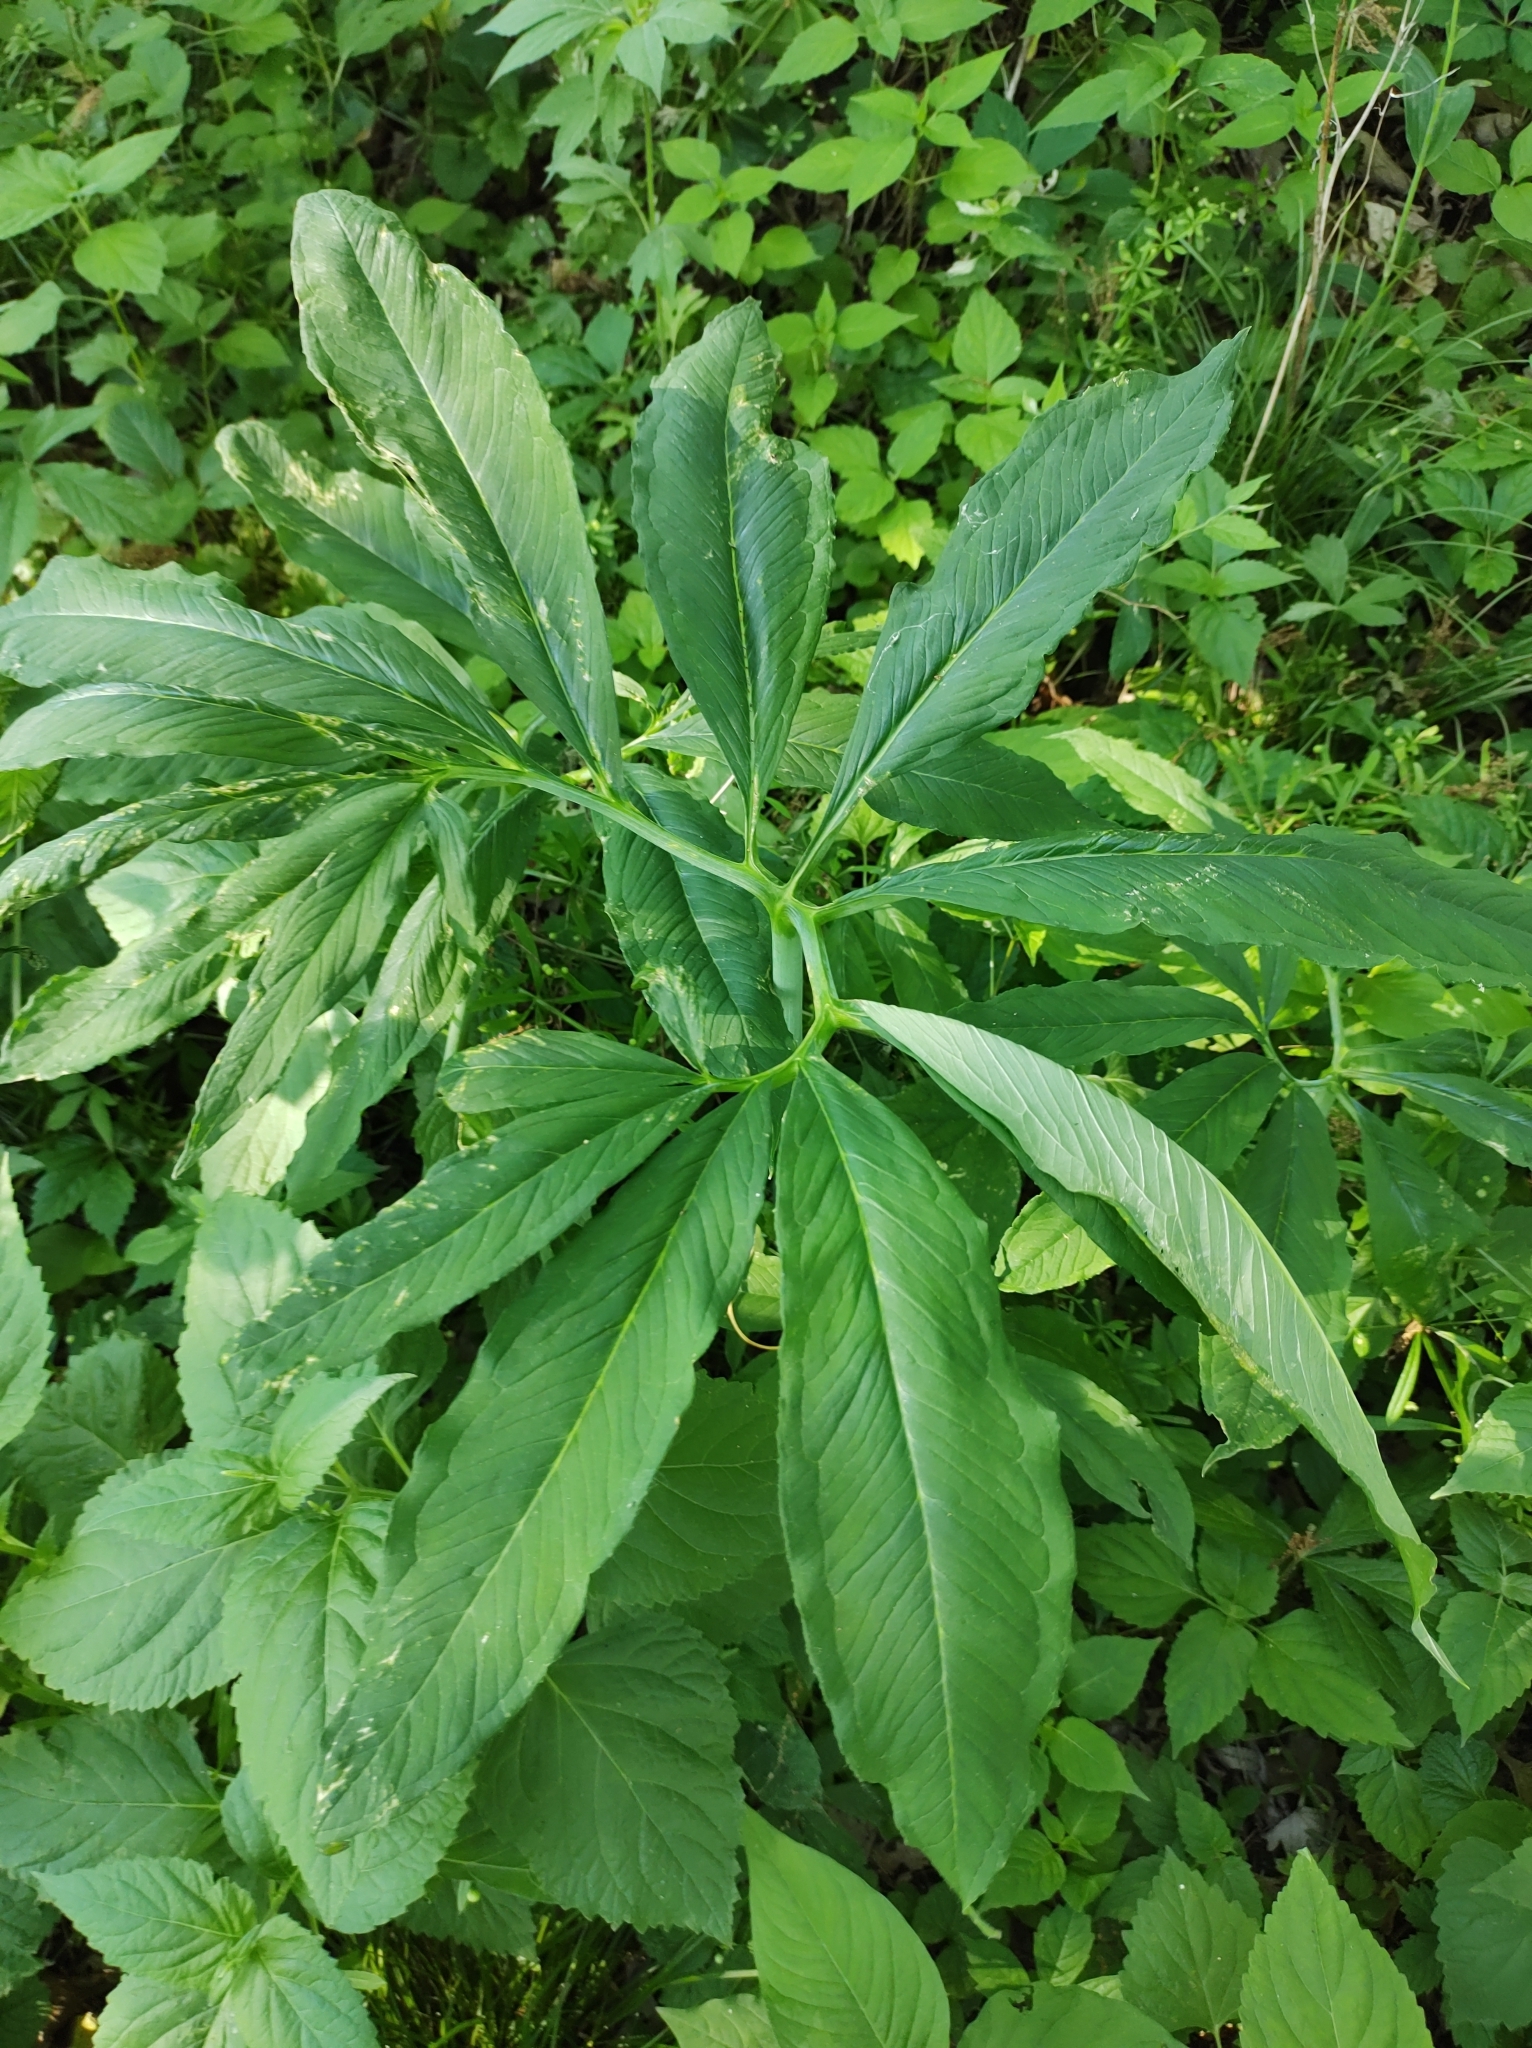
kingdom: Plantae
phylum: Tracheophyta
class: Liliopsida
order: Alismatales
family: Araceae
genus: Arisaema
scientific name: Arisaema dracontium
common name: Dragon-arum
